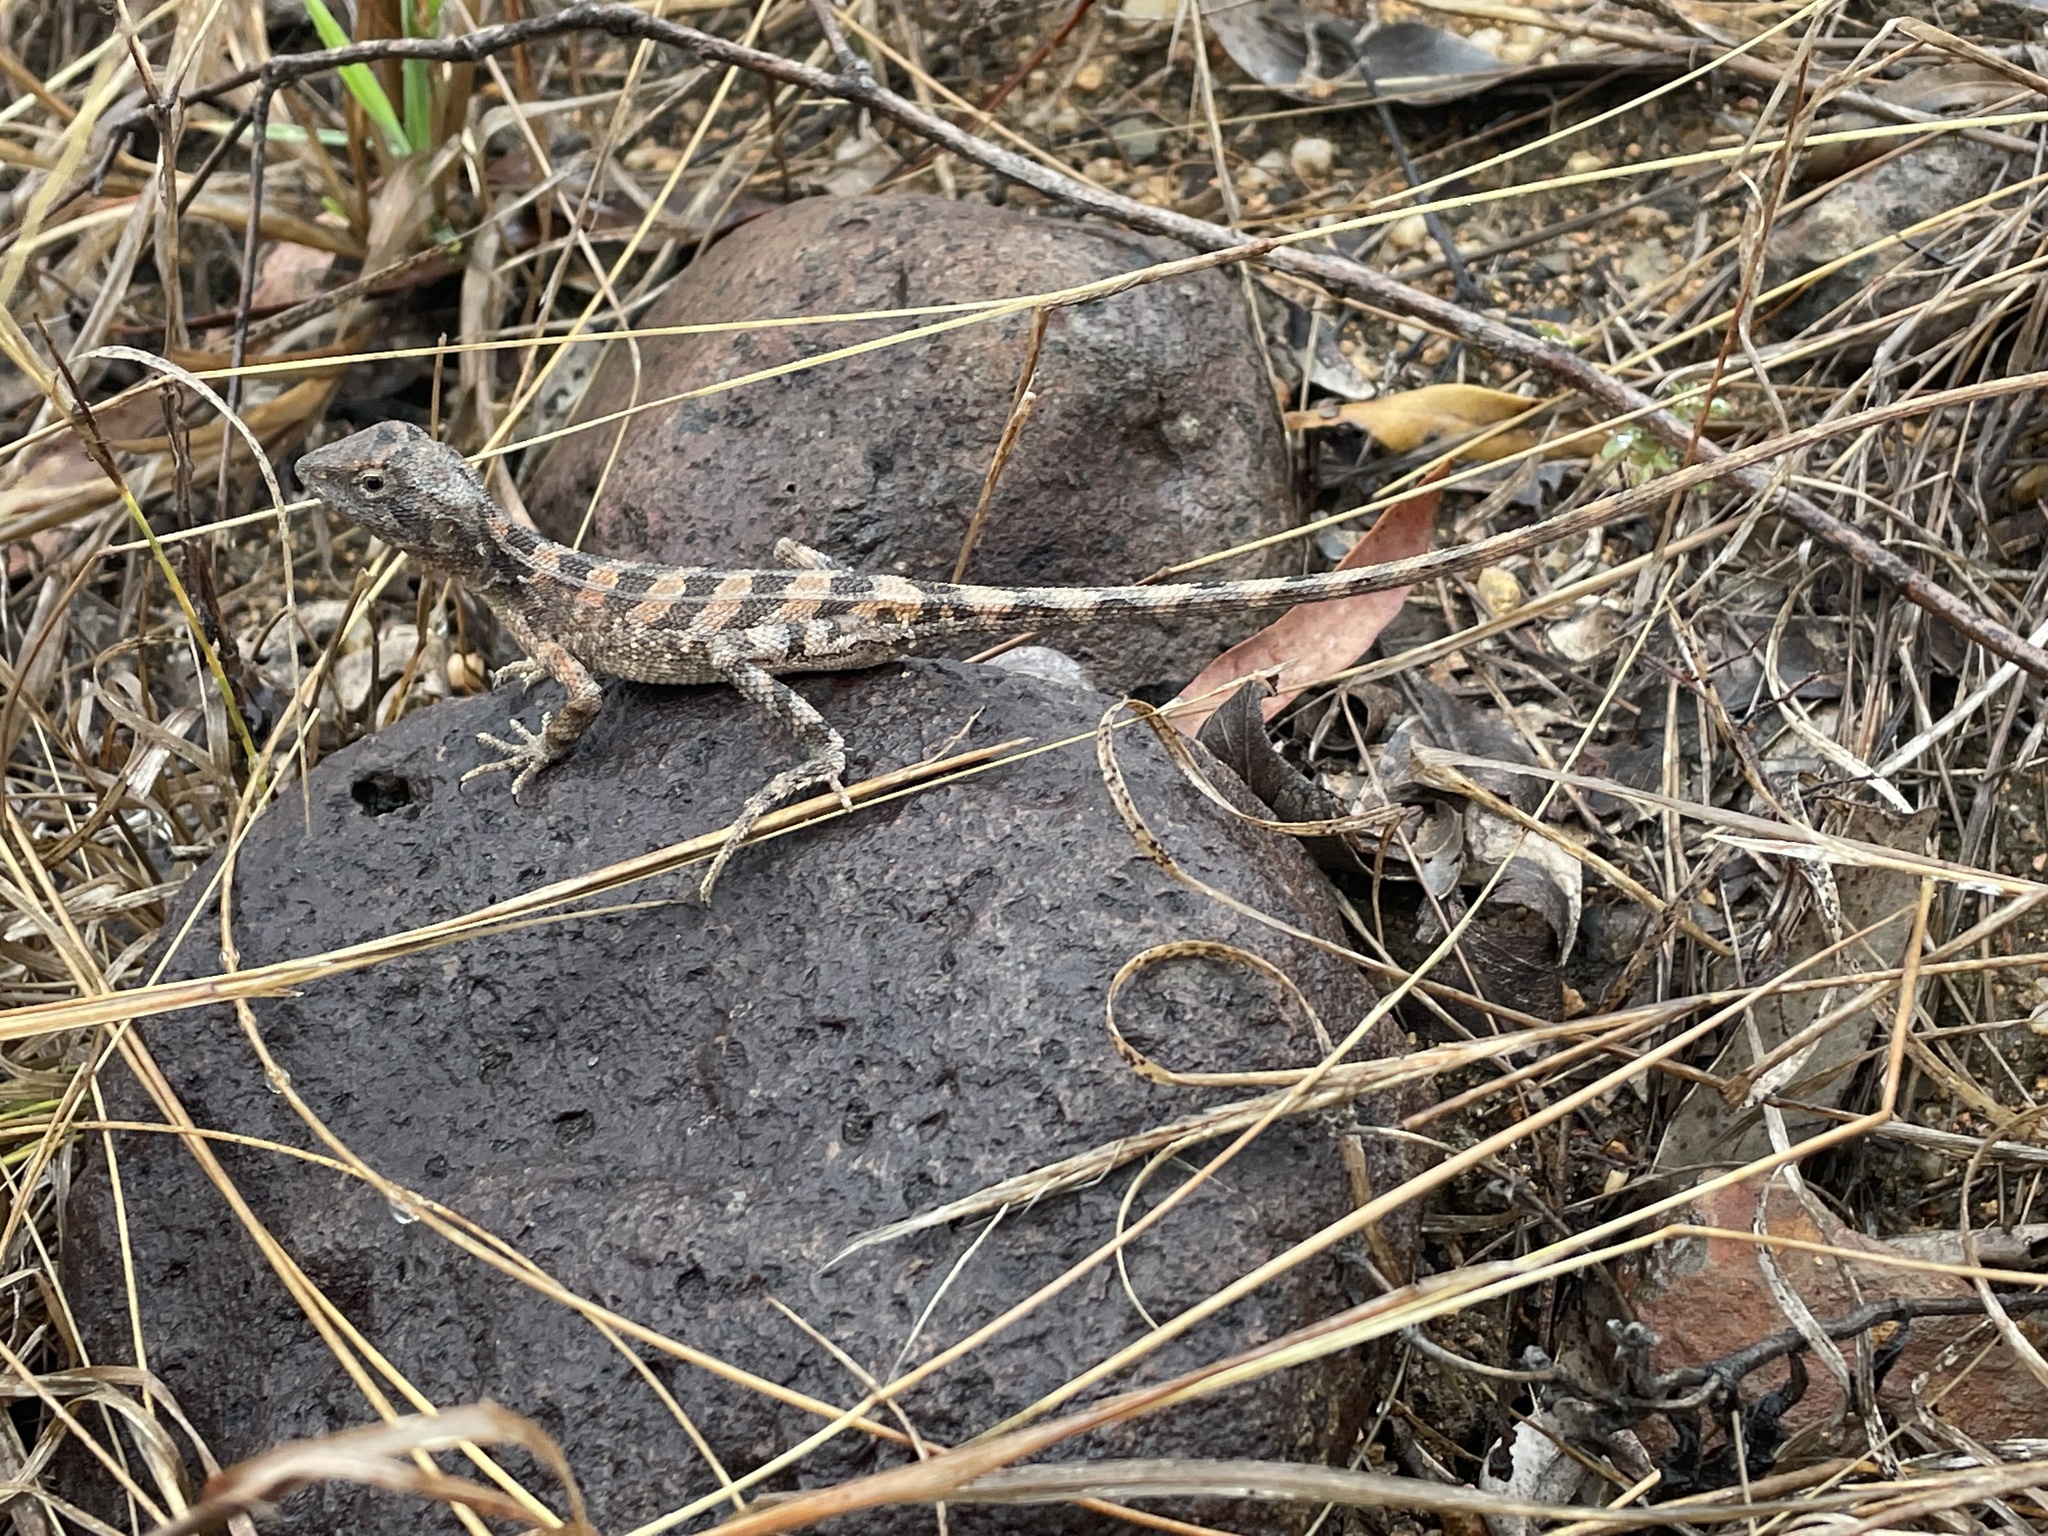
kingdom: Animalia
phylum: Chordata
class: Squamata
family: Agamidae
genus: Diporiphora
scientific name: Diporiphora australis
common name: Eastern two-line dragon
